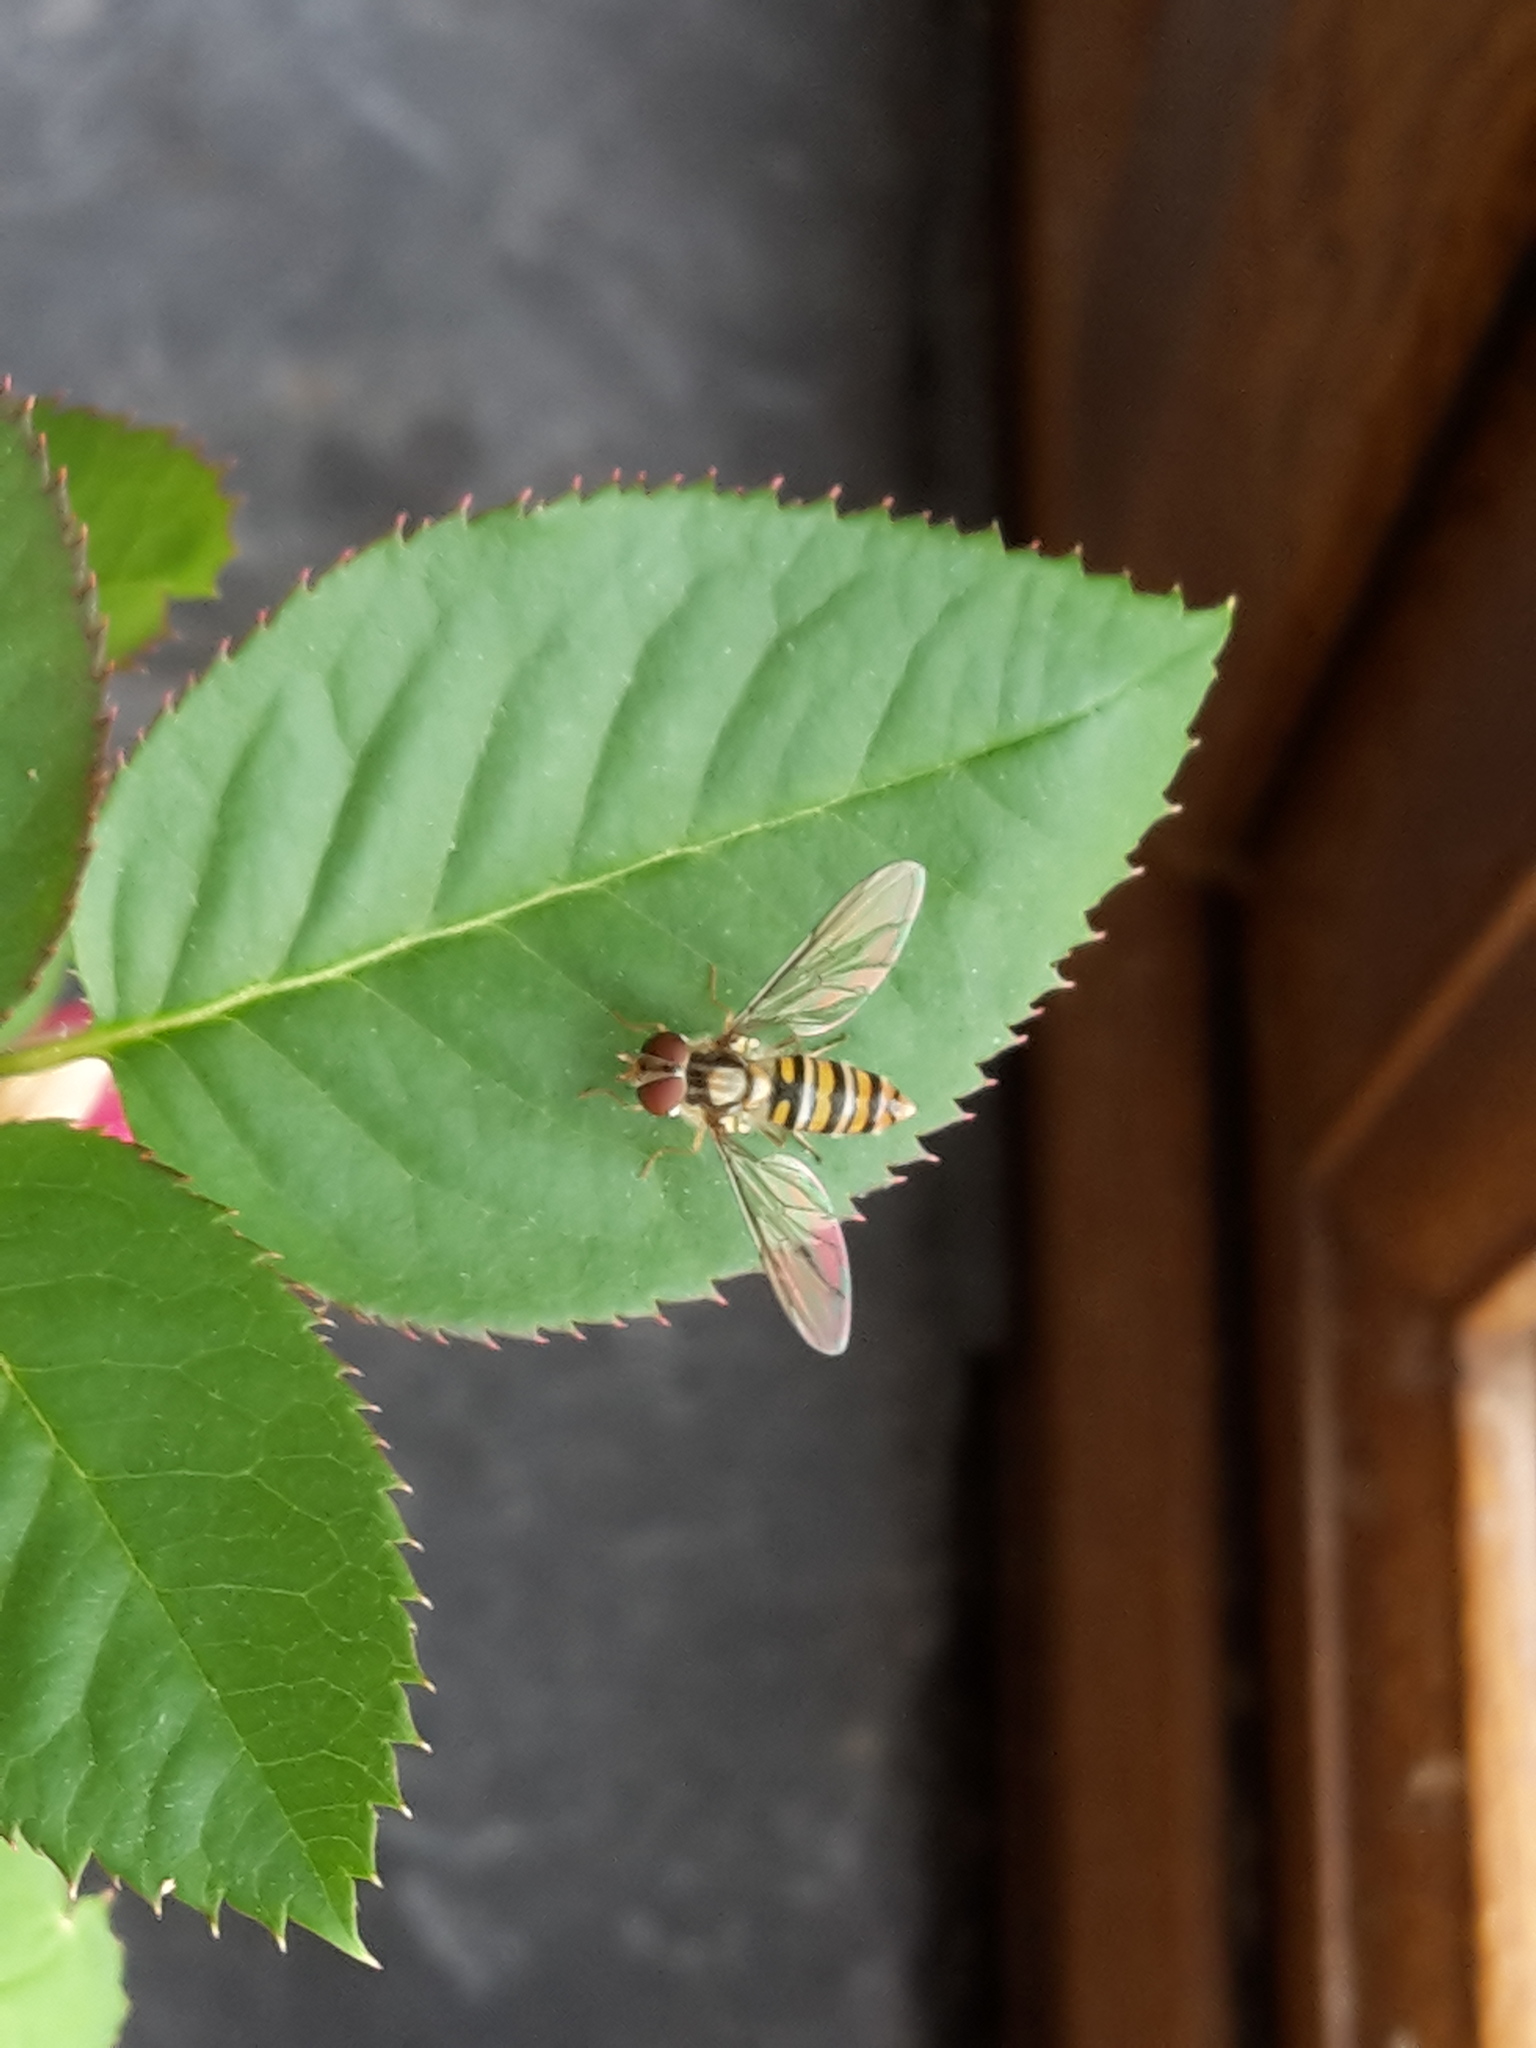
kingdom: Animalia
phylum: Arthropoda
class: Insecta
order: Diptera
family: Syrphidae
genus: Episyrphus
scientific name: Episyrphus balteatus
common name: Marmalade hoverfly
